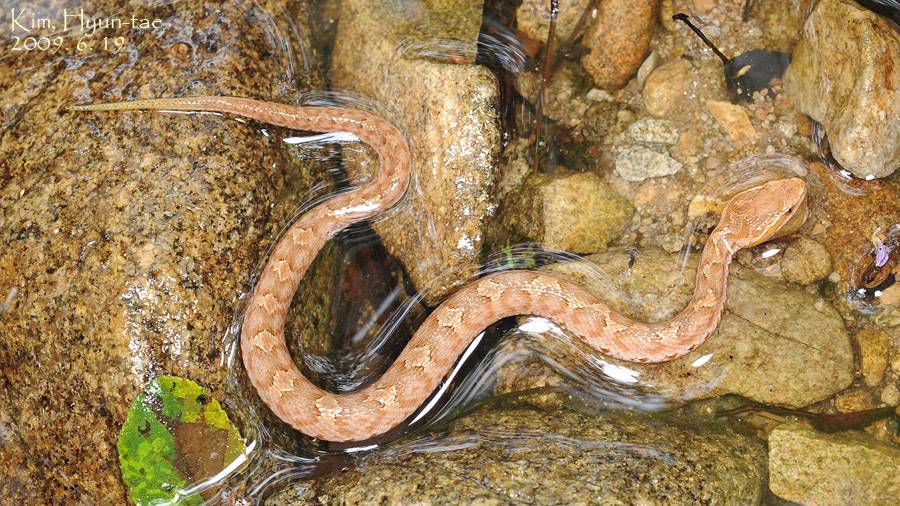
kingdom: Animalia
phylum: Chordata
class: Squamata
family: Viperidae
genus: Gloydius
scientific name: Gloydius ussuriensis
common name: Ussuri mamushi
